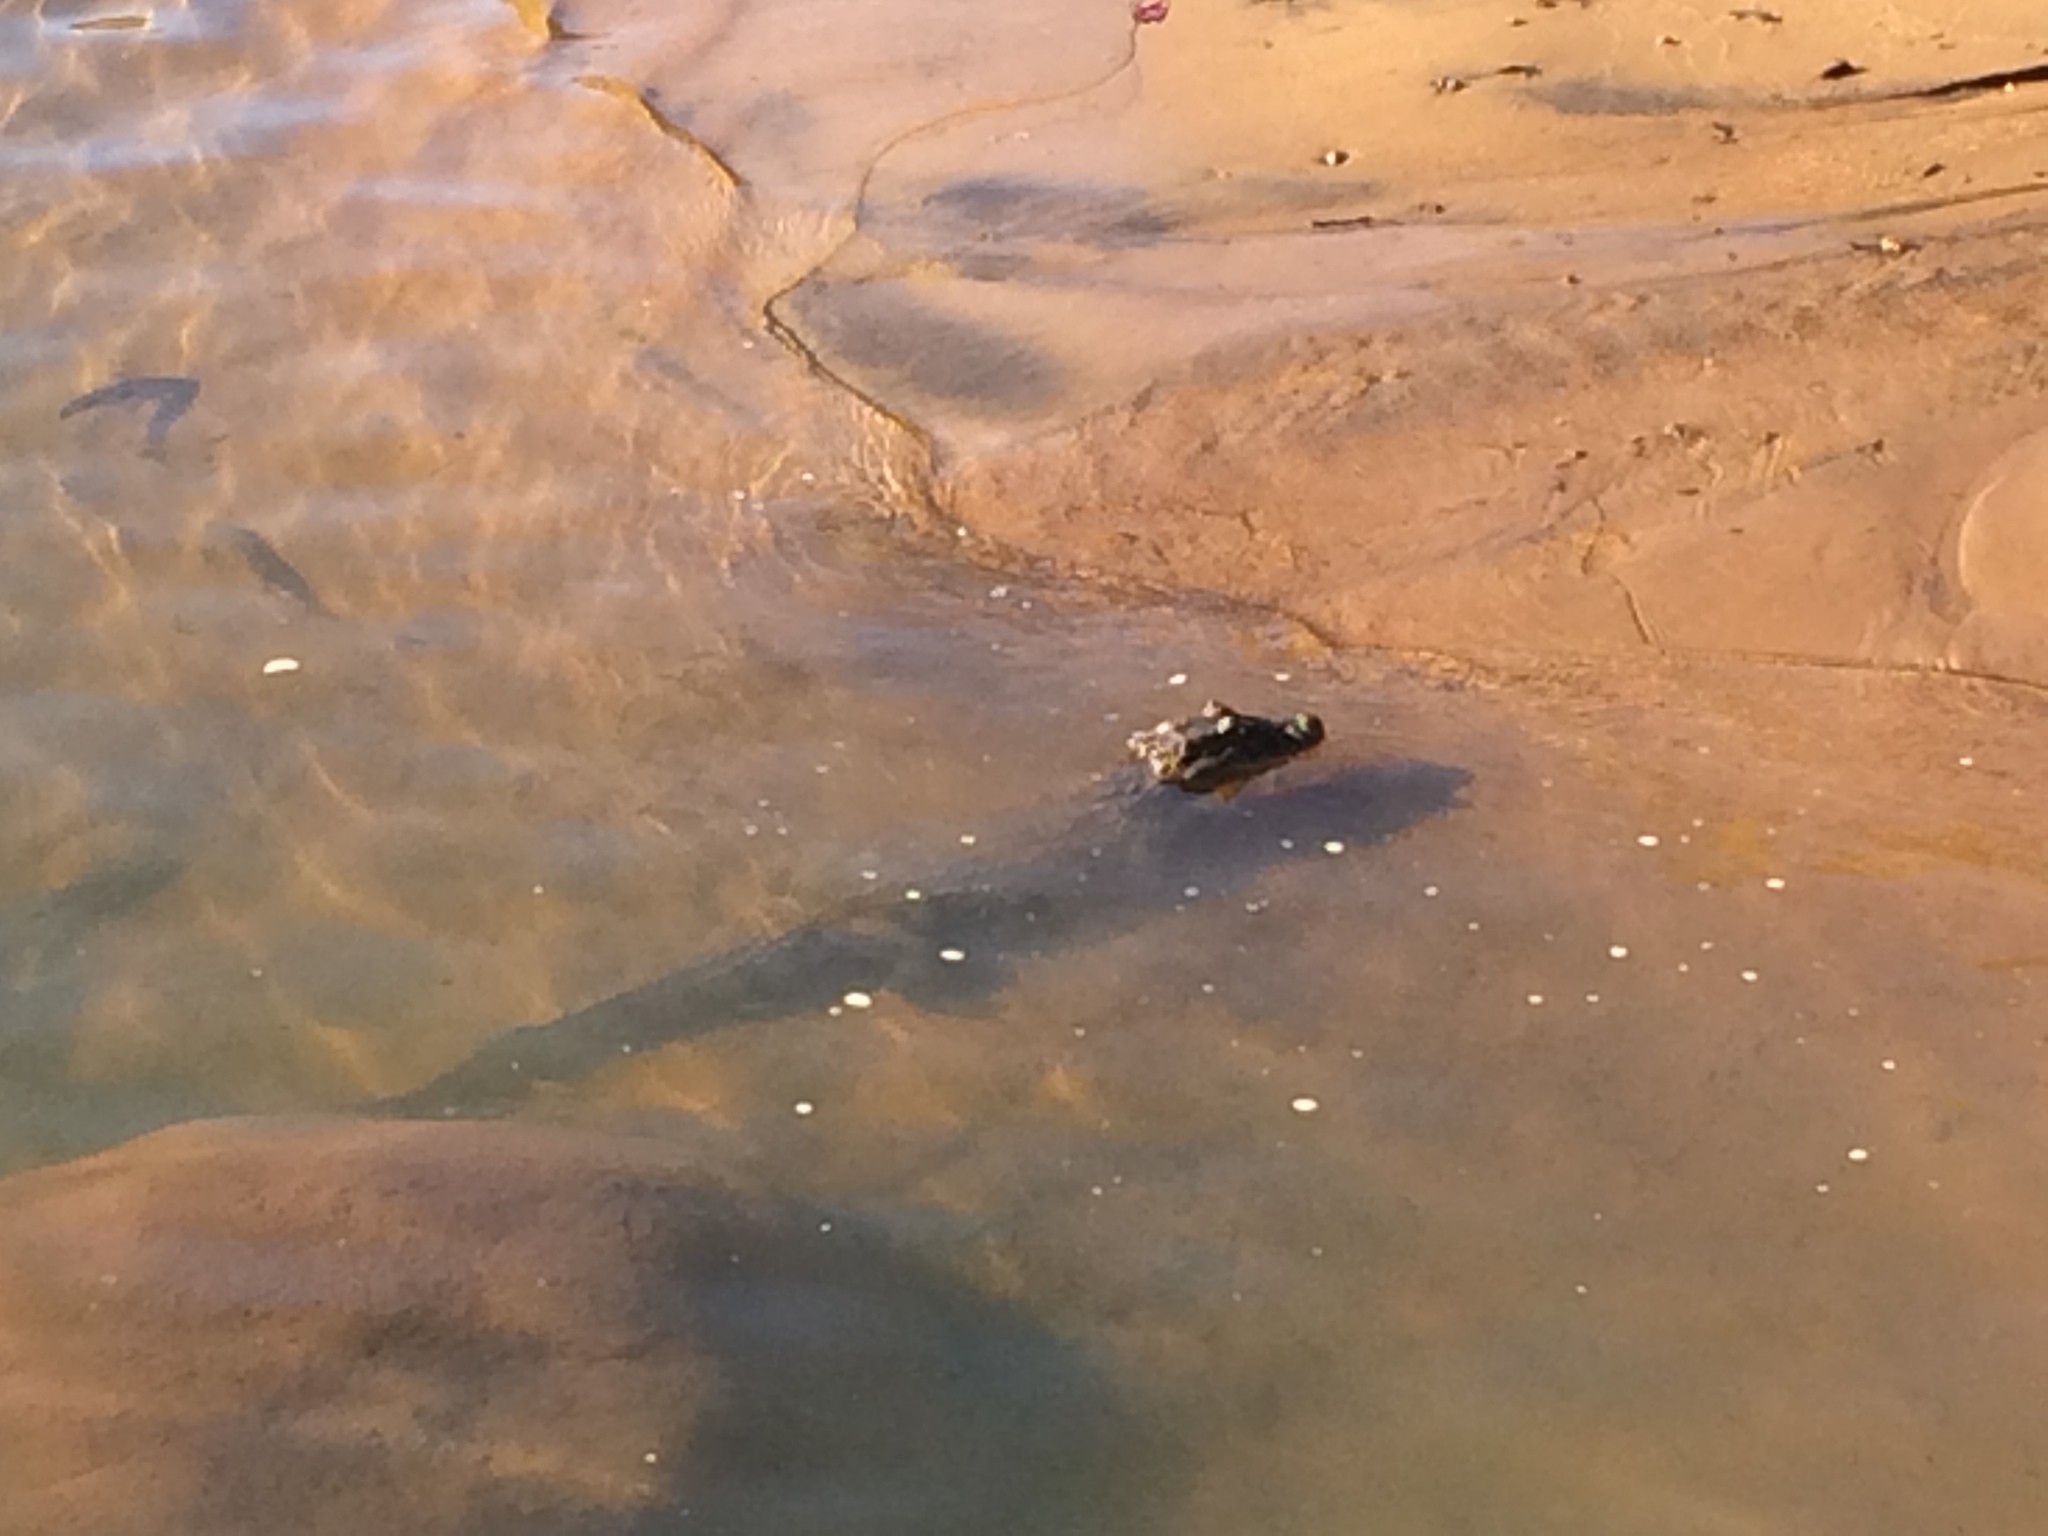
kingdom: Animalia
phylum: Chordata
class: Crocodylia
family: Alligatoridae
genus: Caiman
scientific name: Caiman latirostris
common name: Broad-snouted caiman
